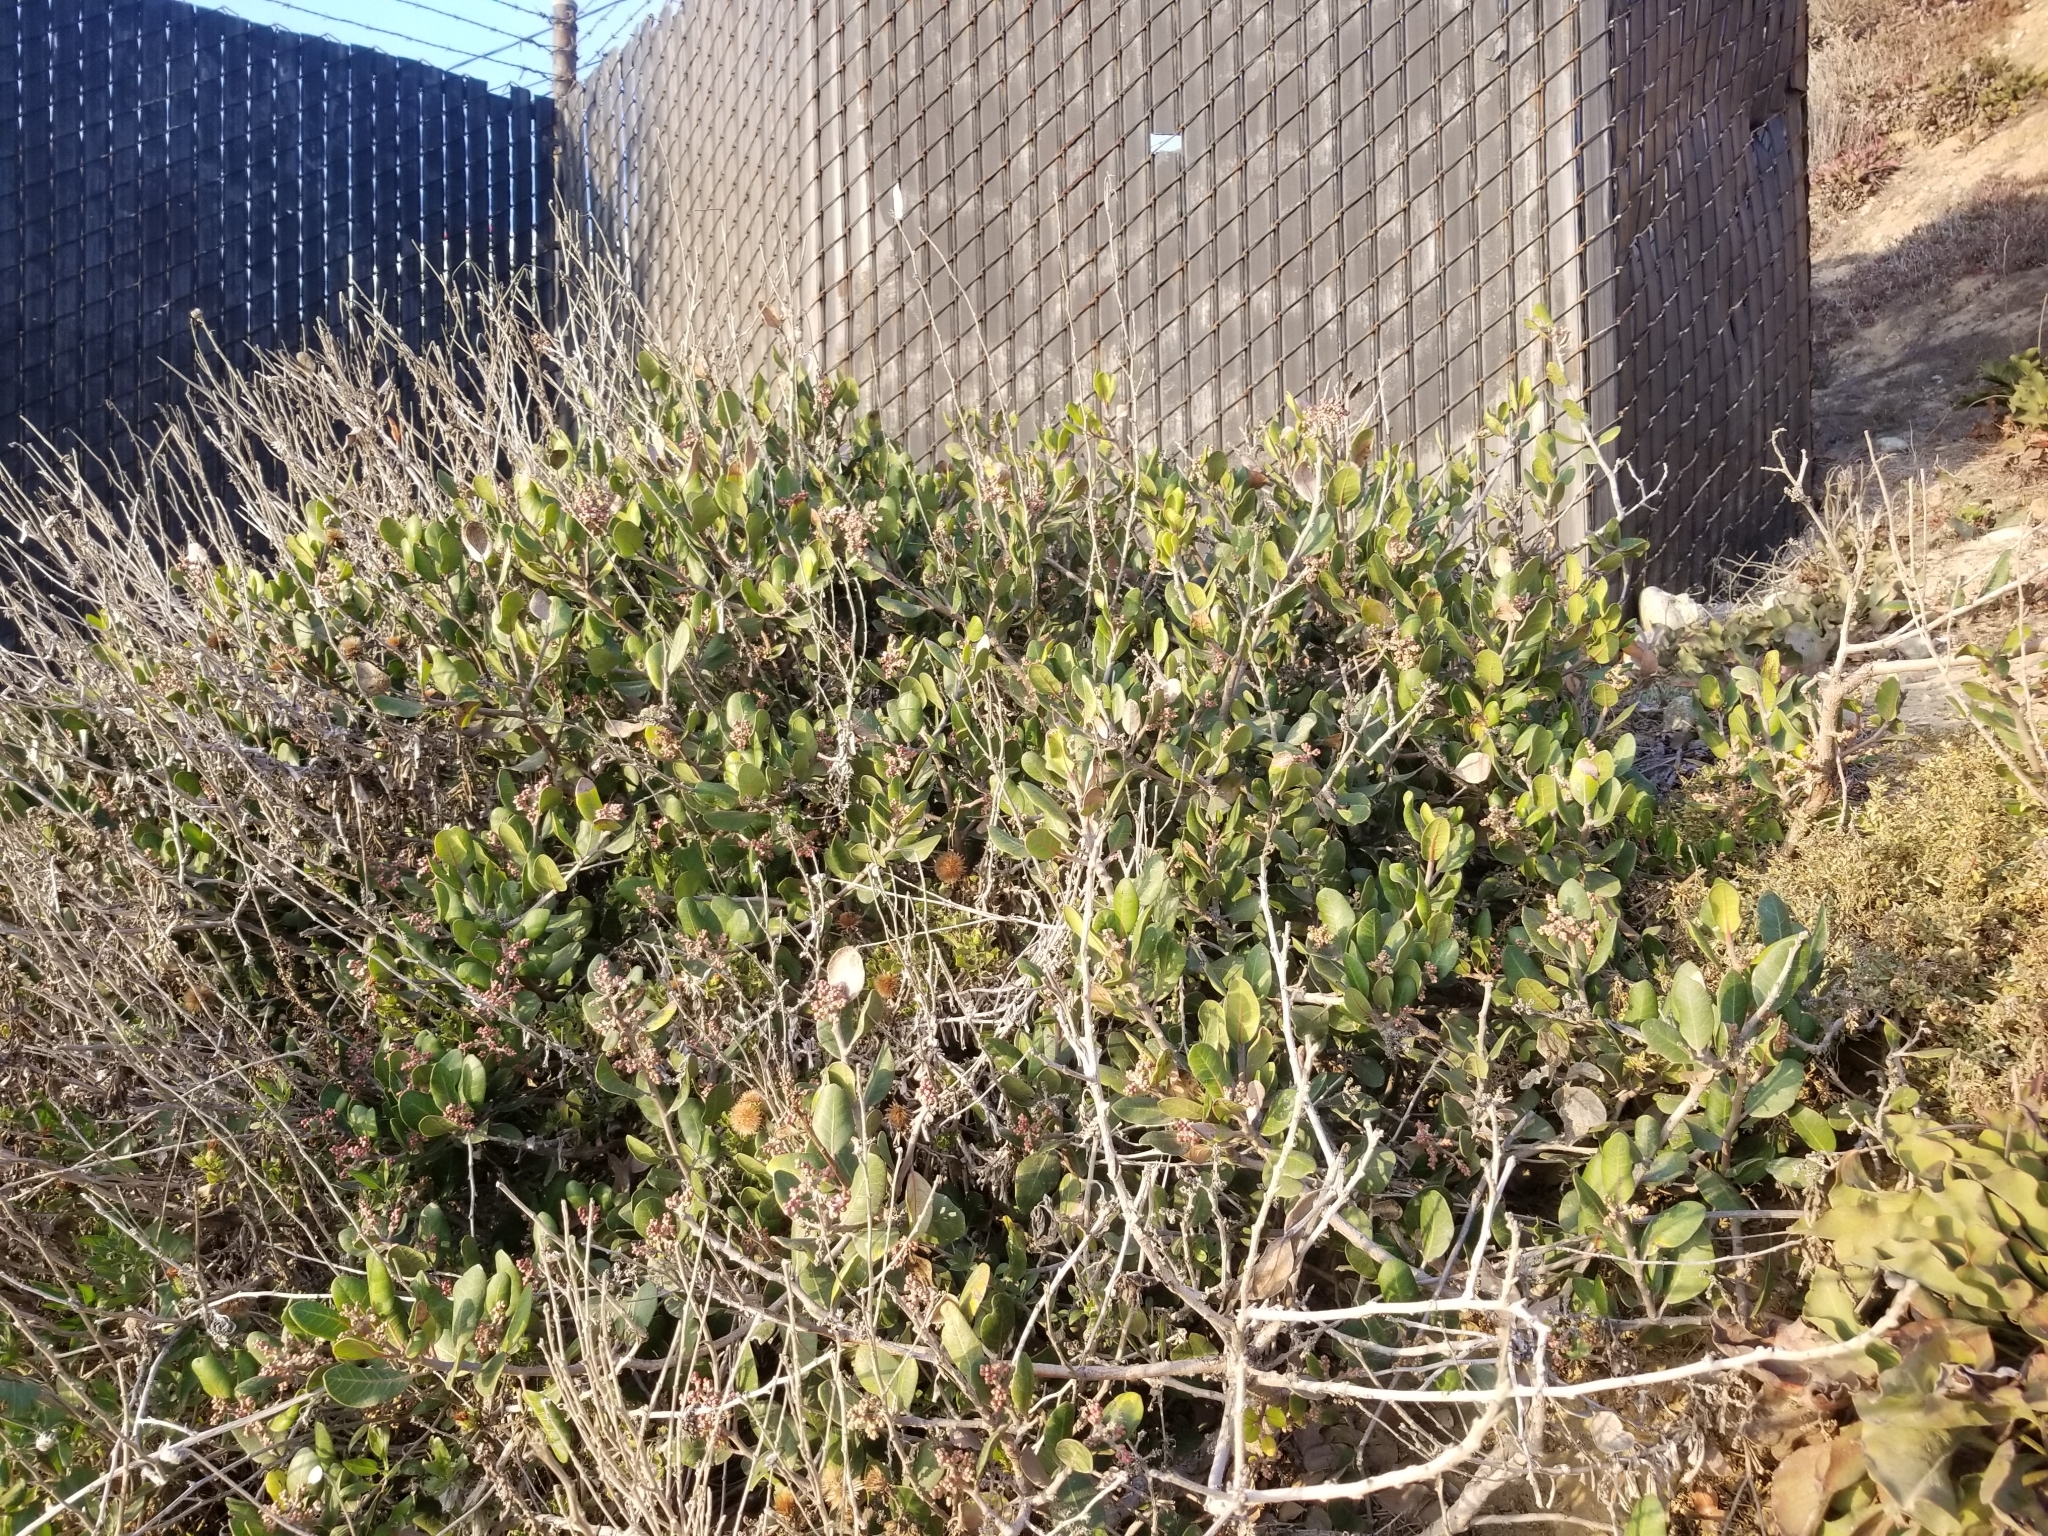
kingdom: Plantae
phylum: Tracheophyta
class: Magnoliopsida
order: Sapindales
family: Anacardiaceae
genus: Rhus
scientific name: Rhus integrifolia
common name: Lemonade sumac
